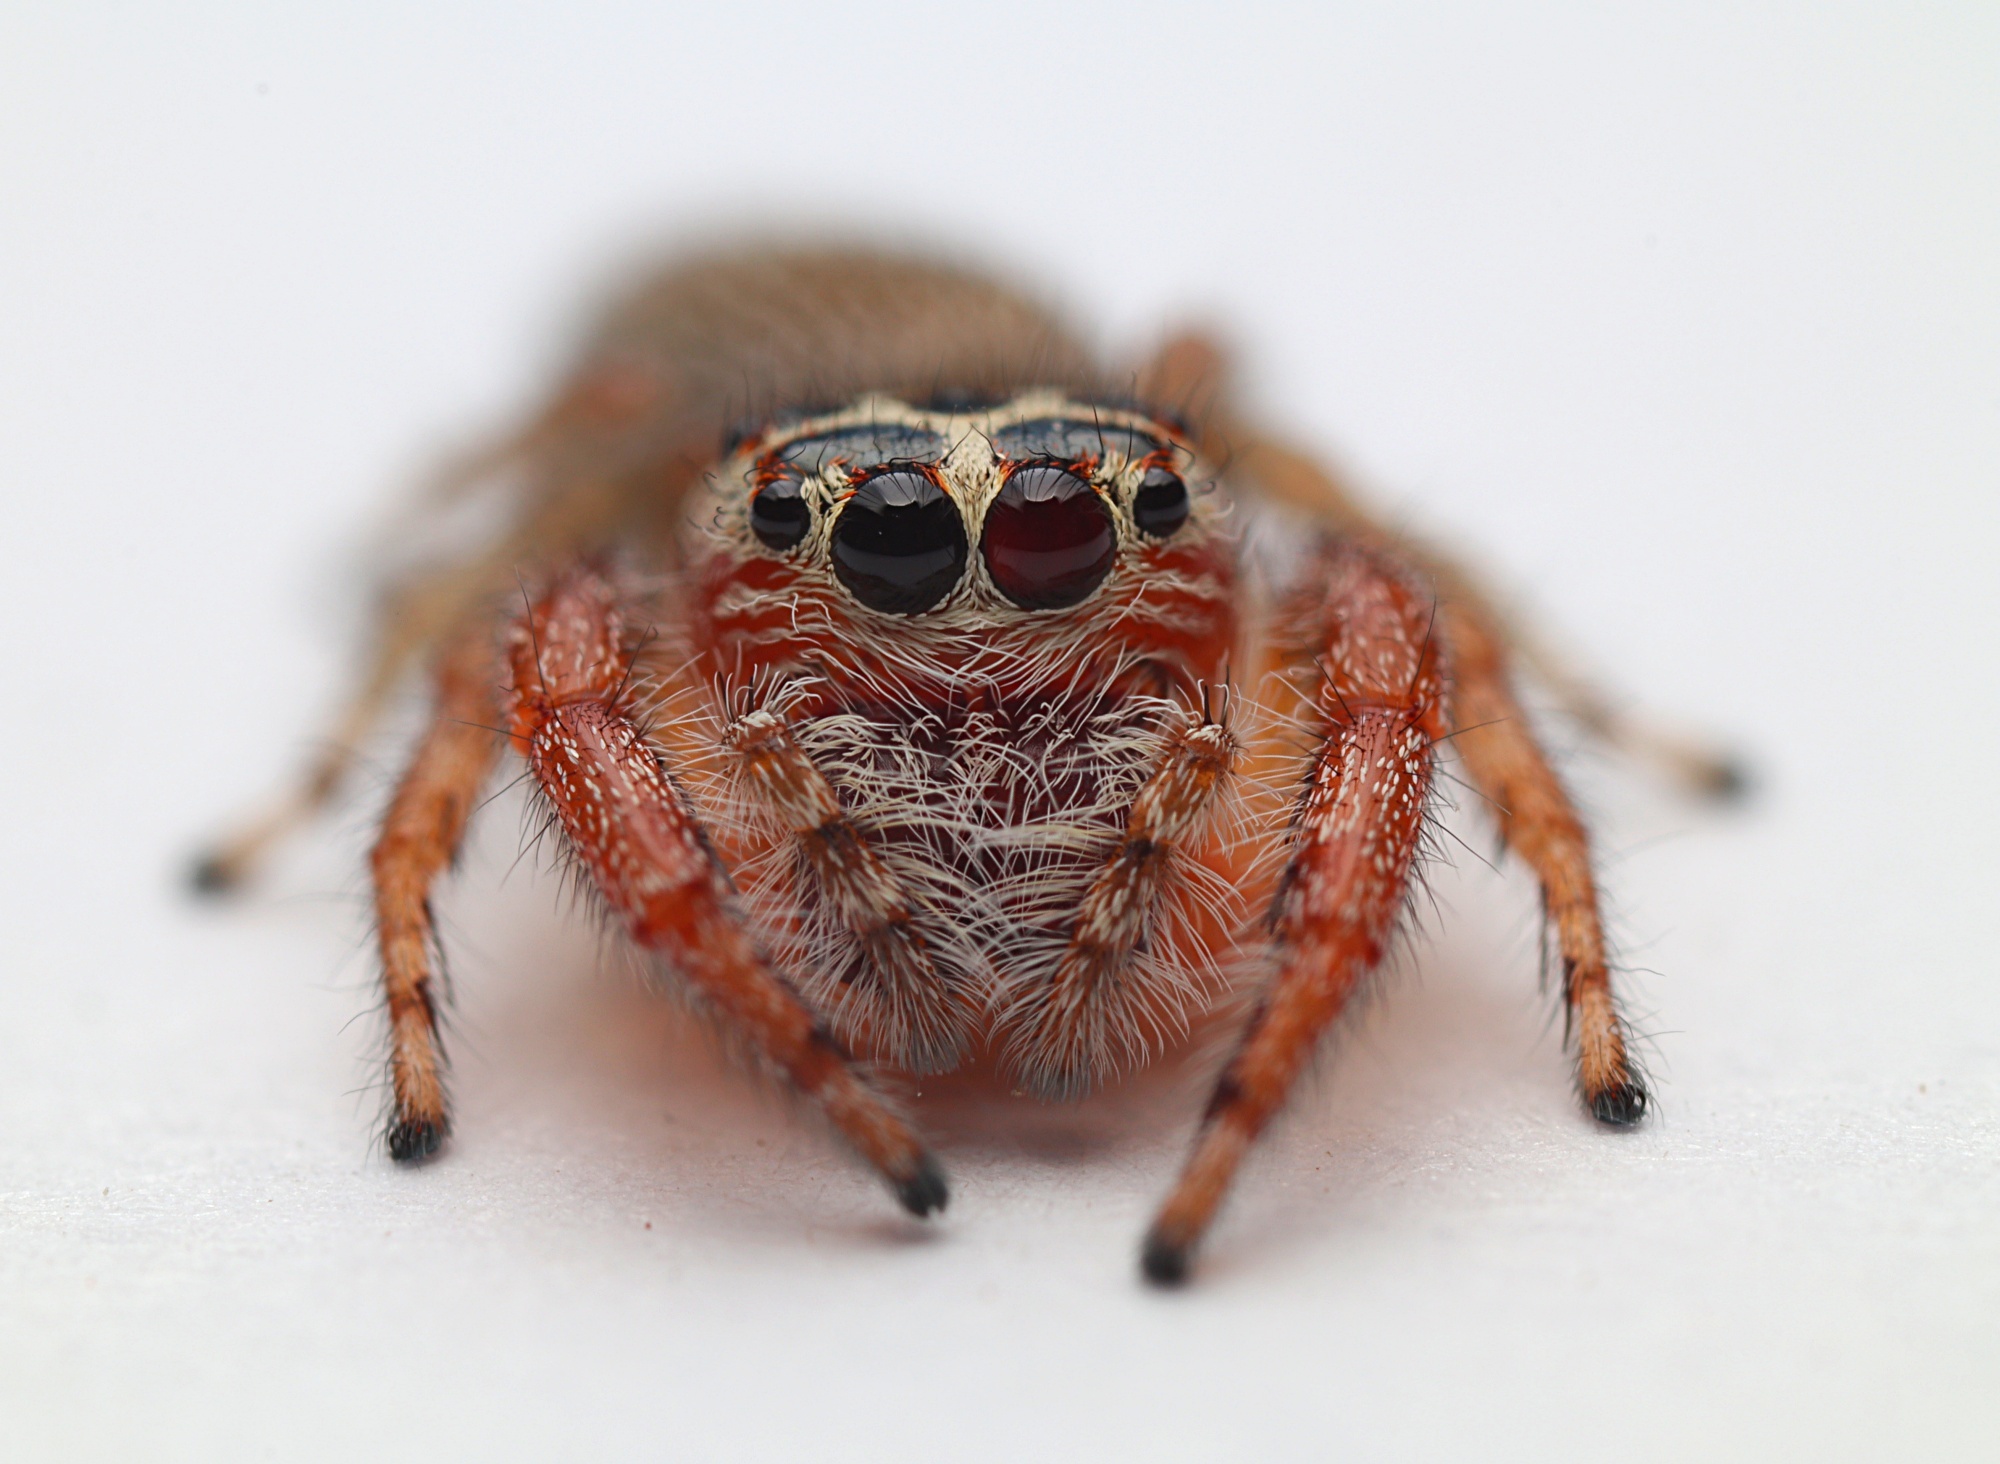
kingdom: Animalia
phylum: Arthropoda
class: Arachnida
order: Araneae
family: Salticidae
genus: Opisthoncus
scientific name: Opisthoncus polyphemus
